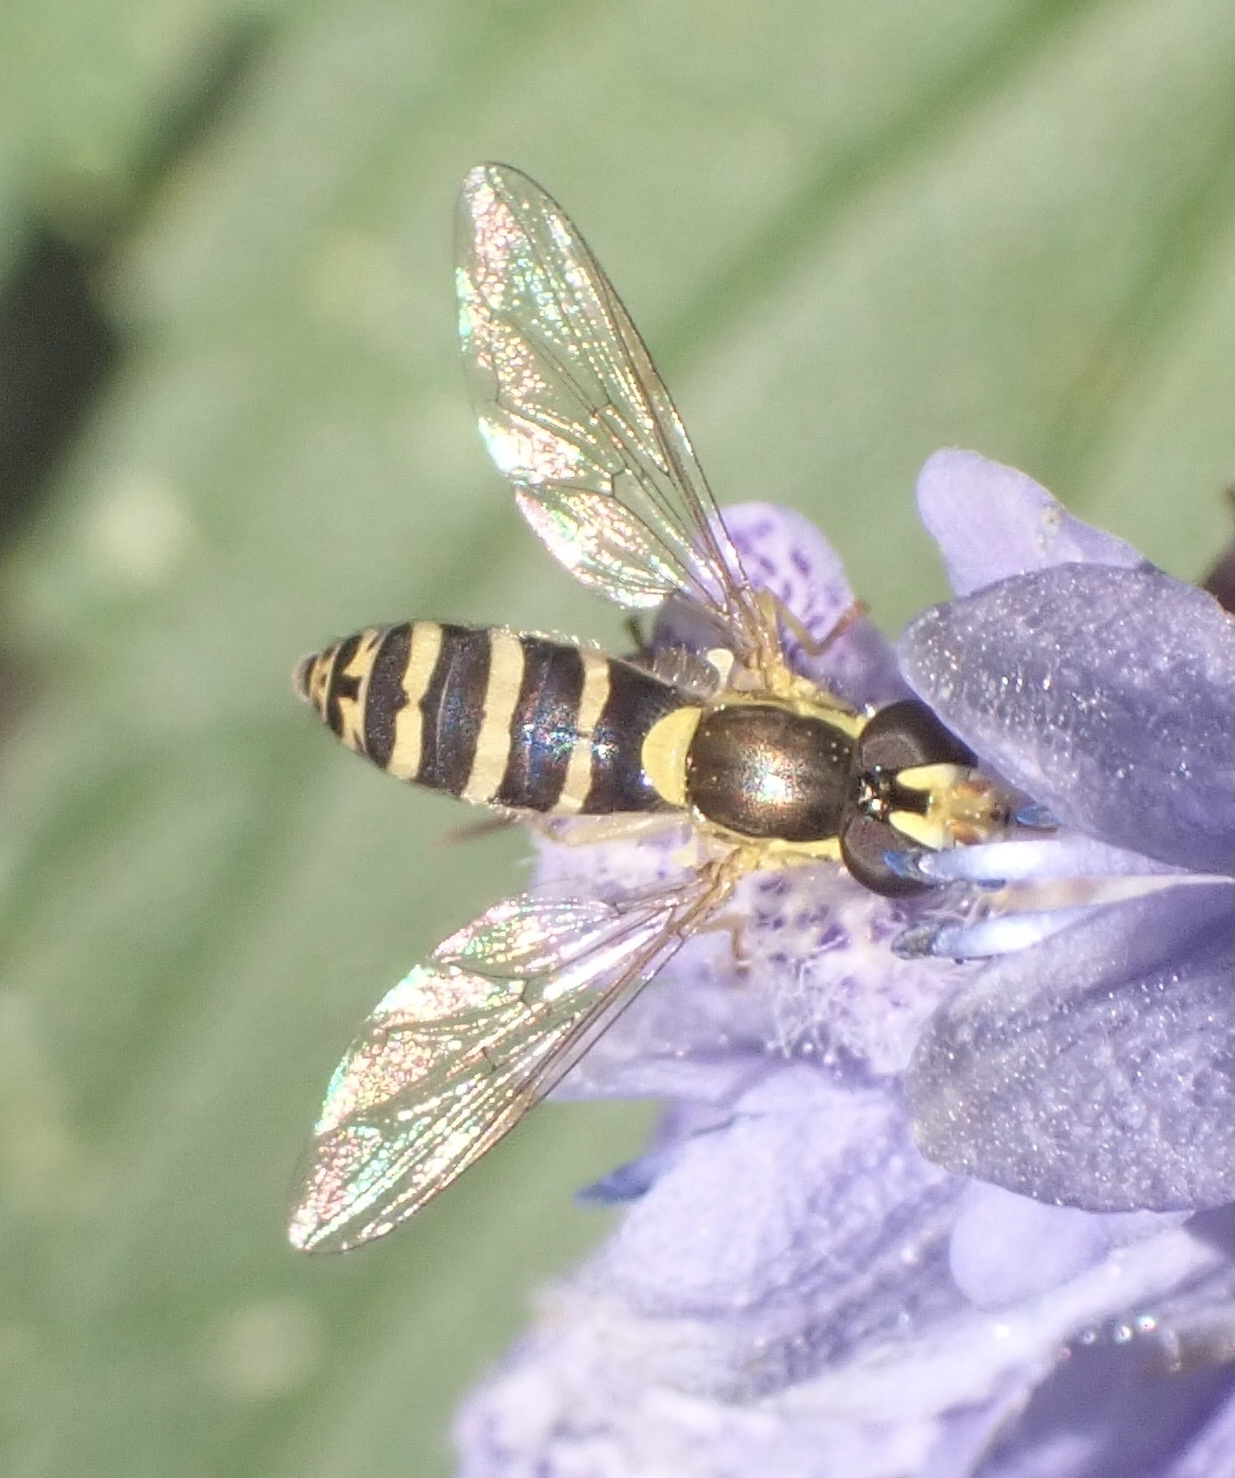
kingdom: Animalia
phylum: Arthropoda
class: Insecta
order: Diptera
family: Syrphidae
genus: Sphaerophoria
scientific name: Sphaerophoria
